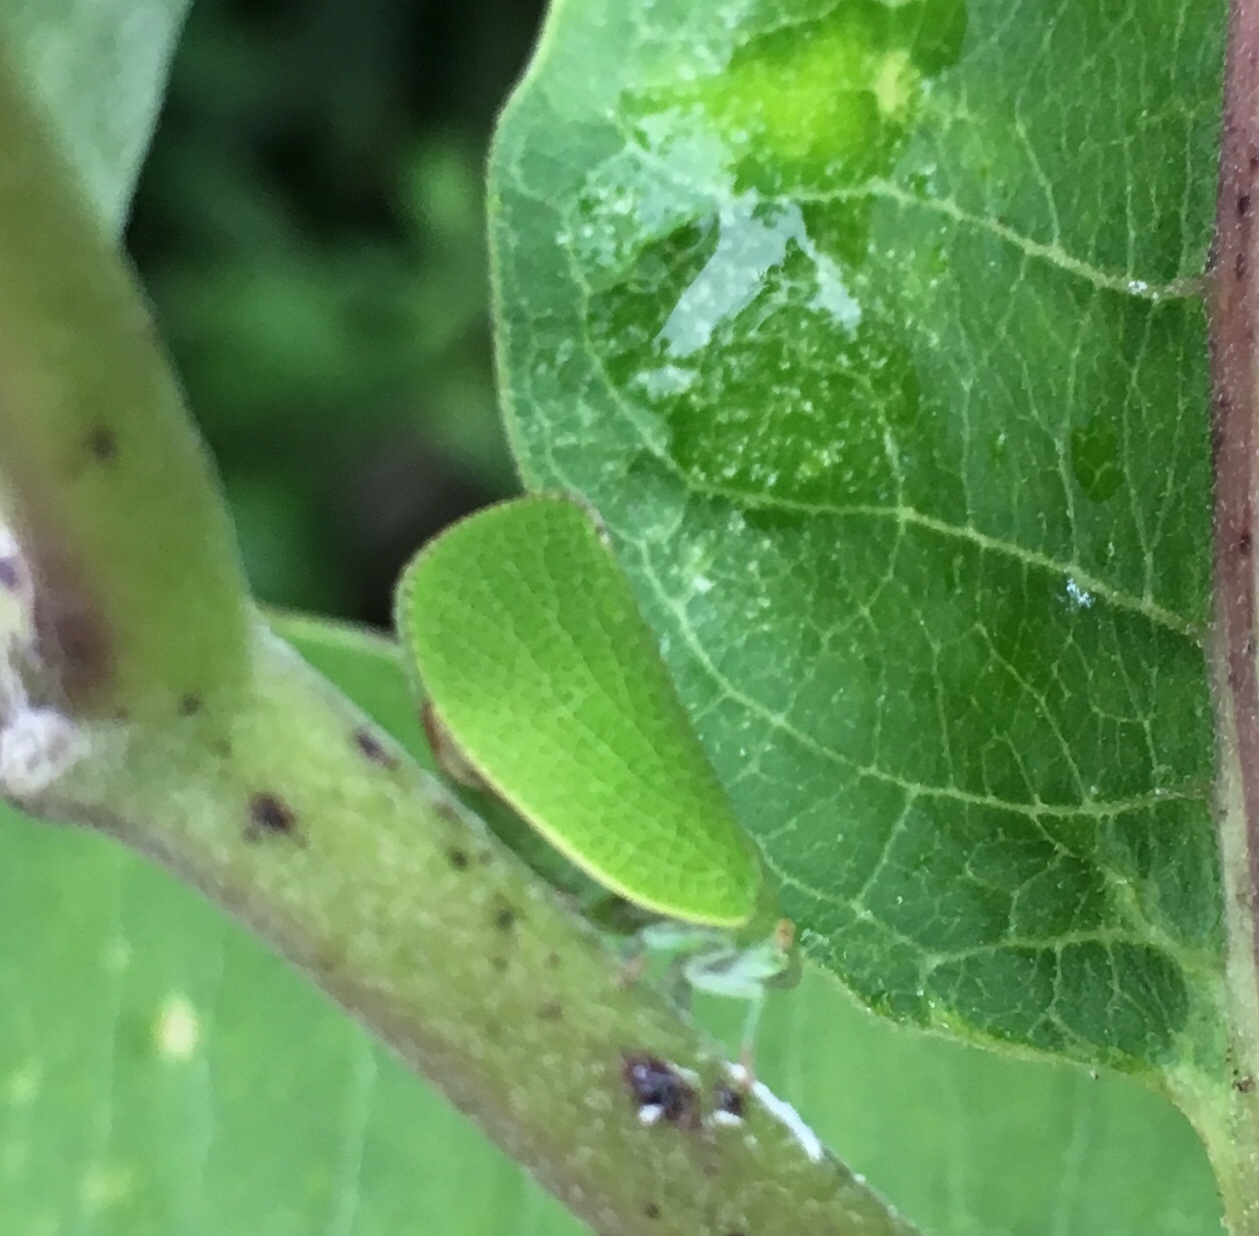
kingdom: Animalia
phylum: Arthropoda
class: Insecta
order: Hemiptera
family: Acanaloniidae
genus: Acanalonia
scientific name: Acanalonia conica
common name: Green cone-headed planthopper
